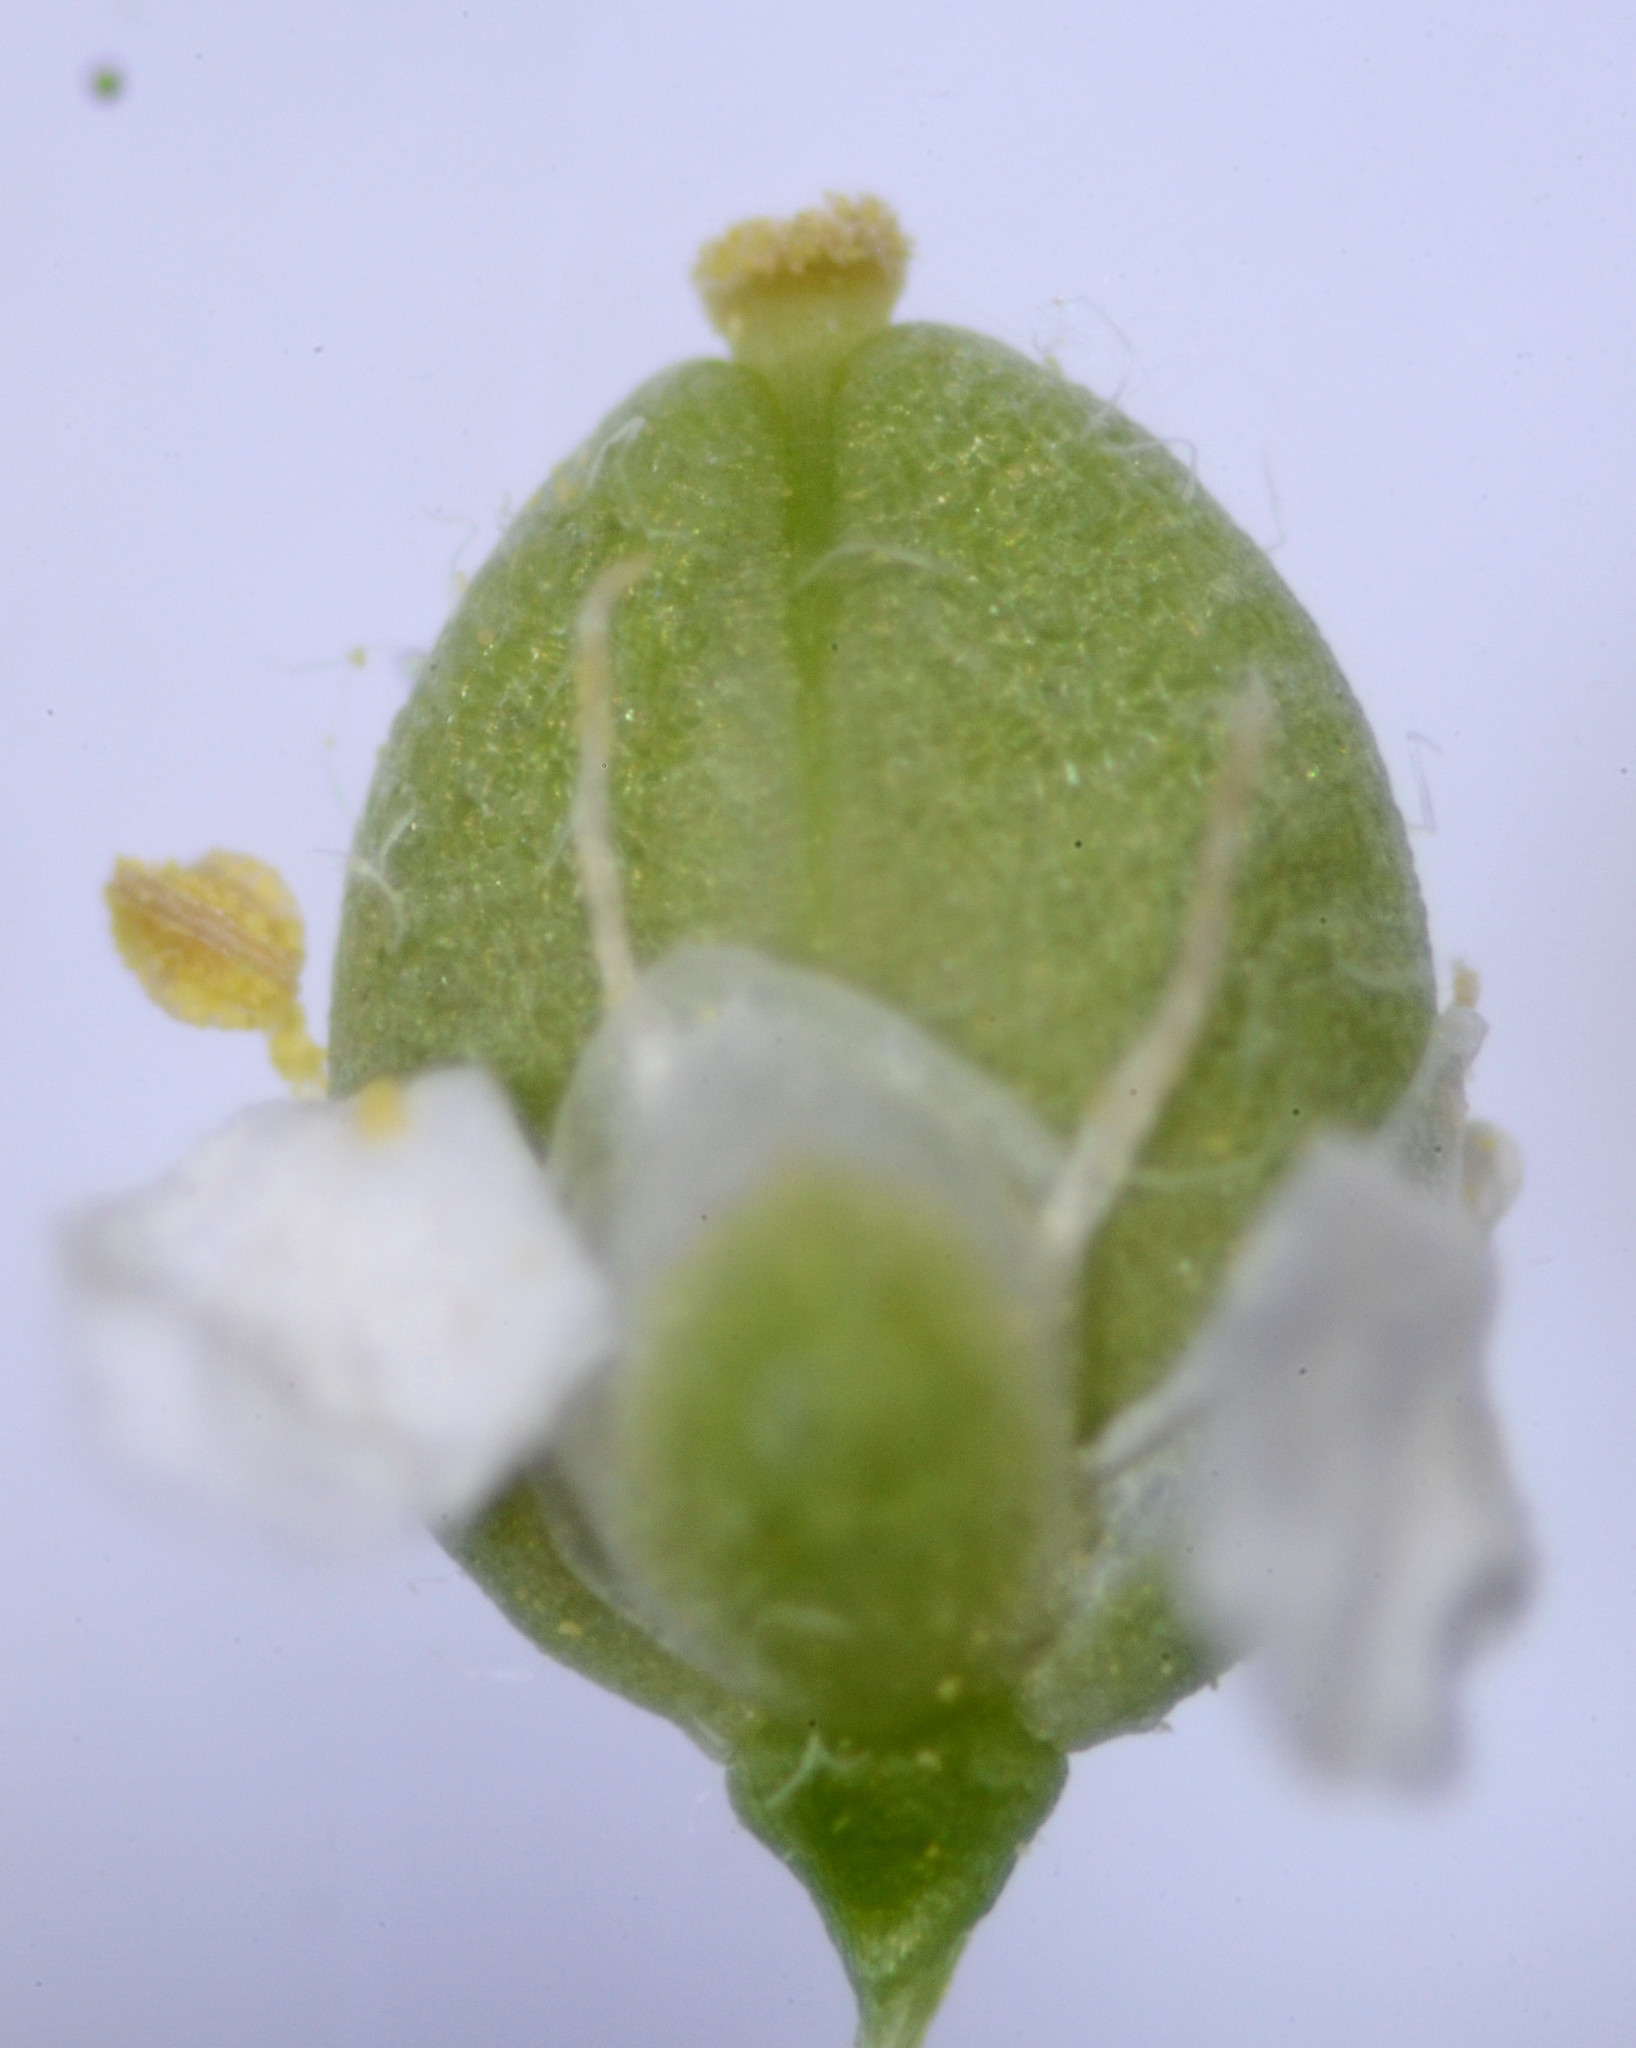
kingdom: Plantae
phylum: Tracheophyta
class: Magnoliopsida
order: Brassicales
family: Brassicaceae
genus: Lepidium
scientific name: Lepidium latifolium
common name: Dittander
